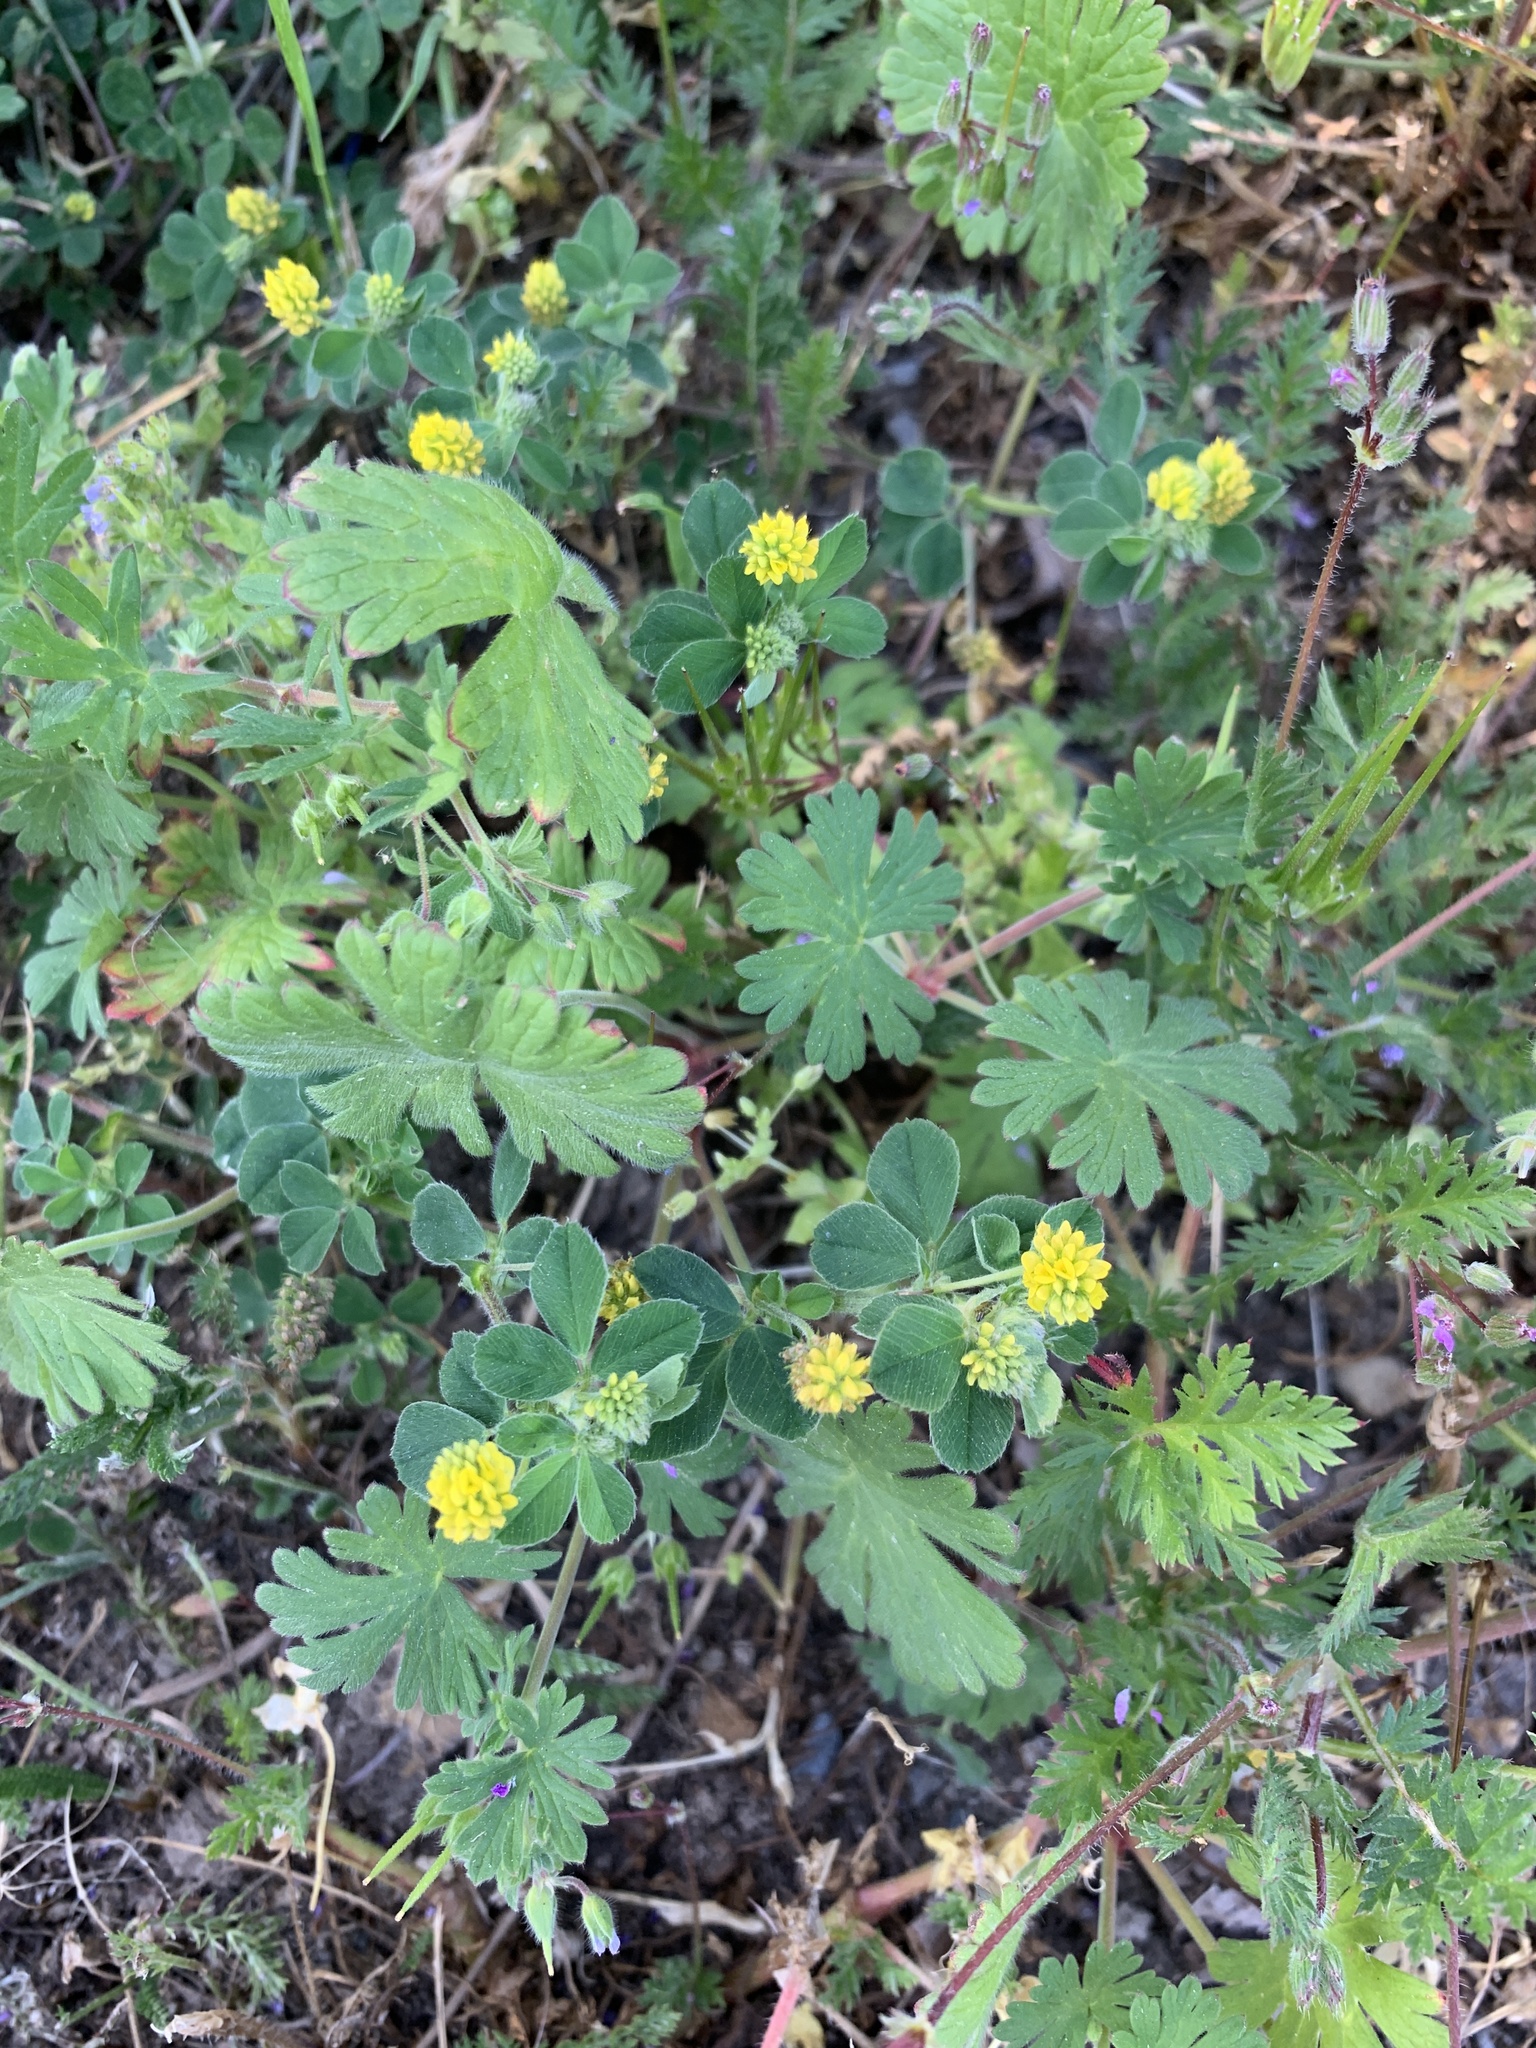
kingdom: Plantae
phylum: Tracheophyta
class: Magnoliopsida
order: Fabales
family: Fabaceae
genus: Medicago
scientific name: Medicago lupulina
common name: Black medick
